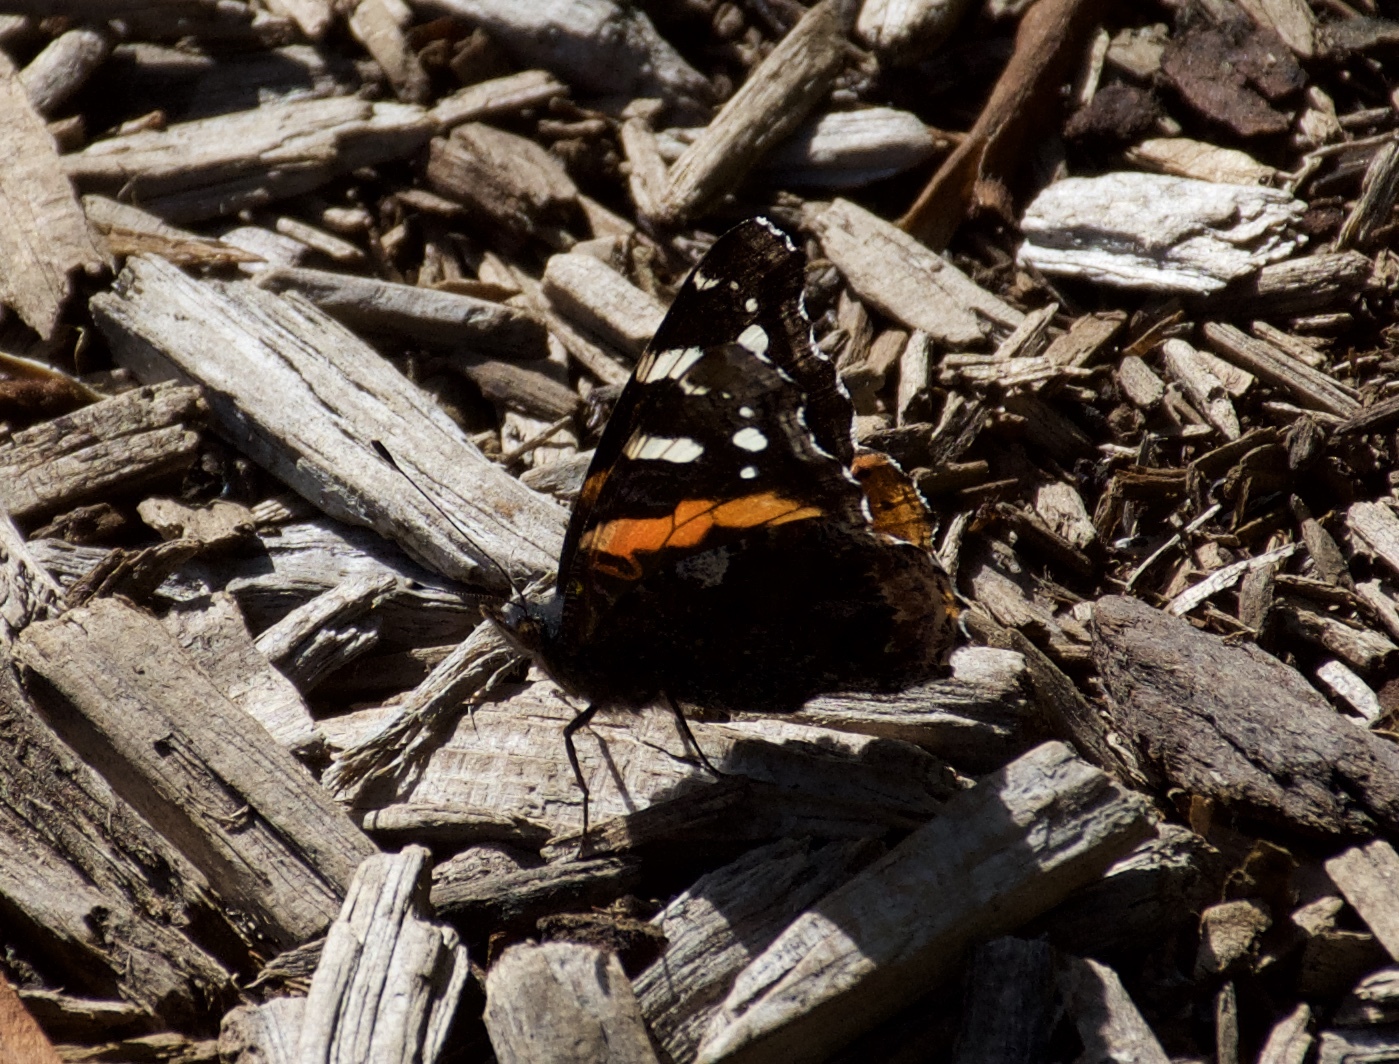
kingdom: Animalia
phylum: Arthropoda
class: Insecta
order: Lepidoptera
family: Nymphalidae
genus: Vanessa
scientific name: Vanessa atalanta
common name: Red admiral
